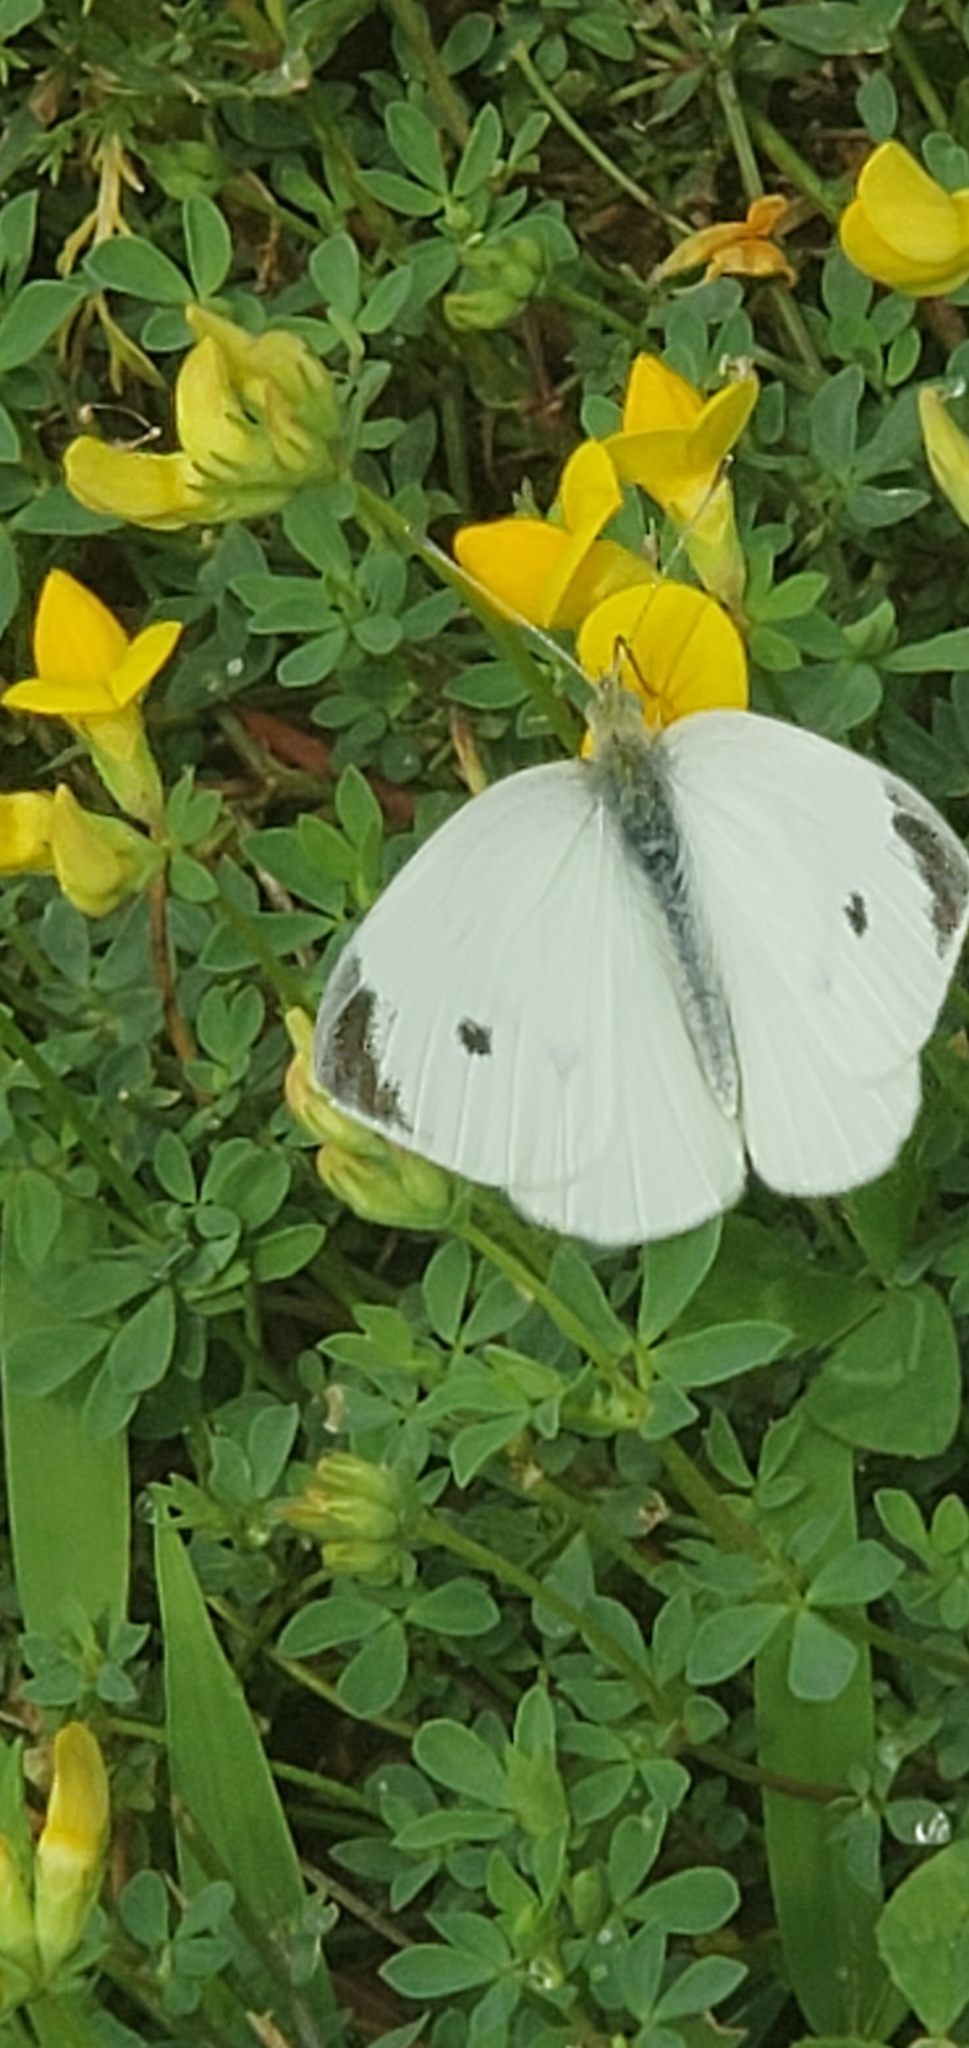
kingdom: Animalia
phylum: Arthropoda
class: Insecta
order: Lepidoptera
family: Pieridae
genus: Pieris
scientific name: Pieris rapae
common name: Small white
